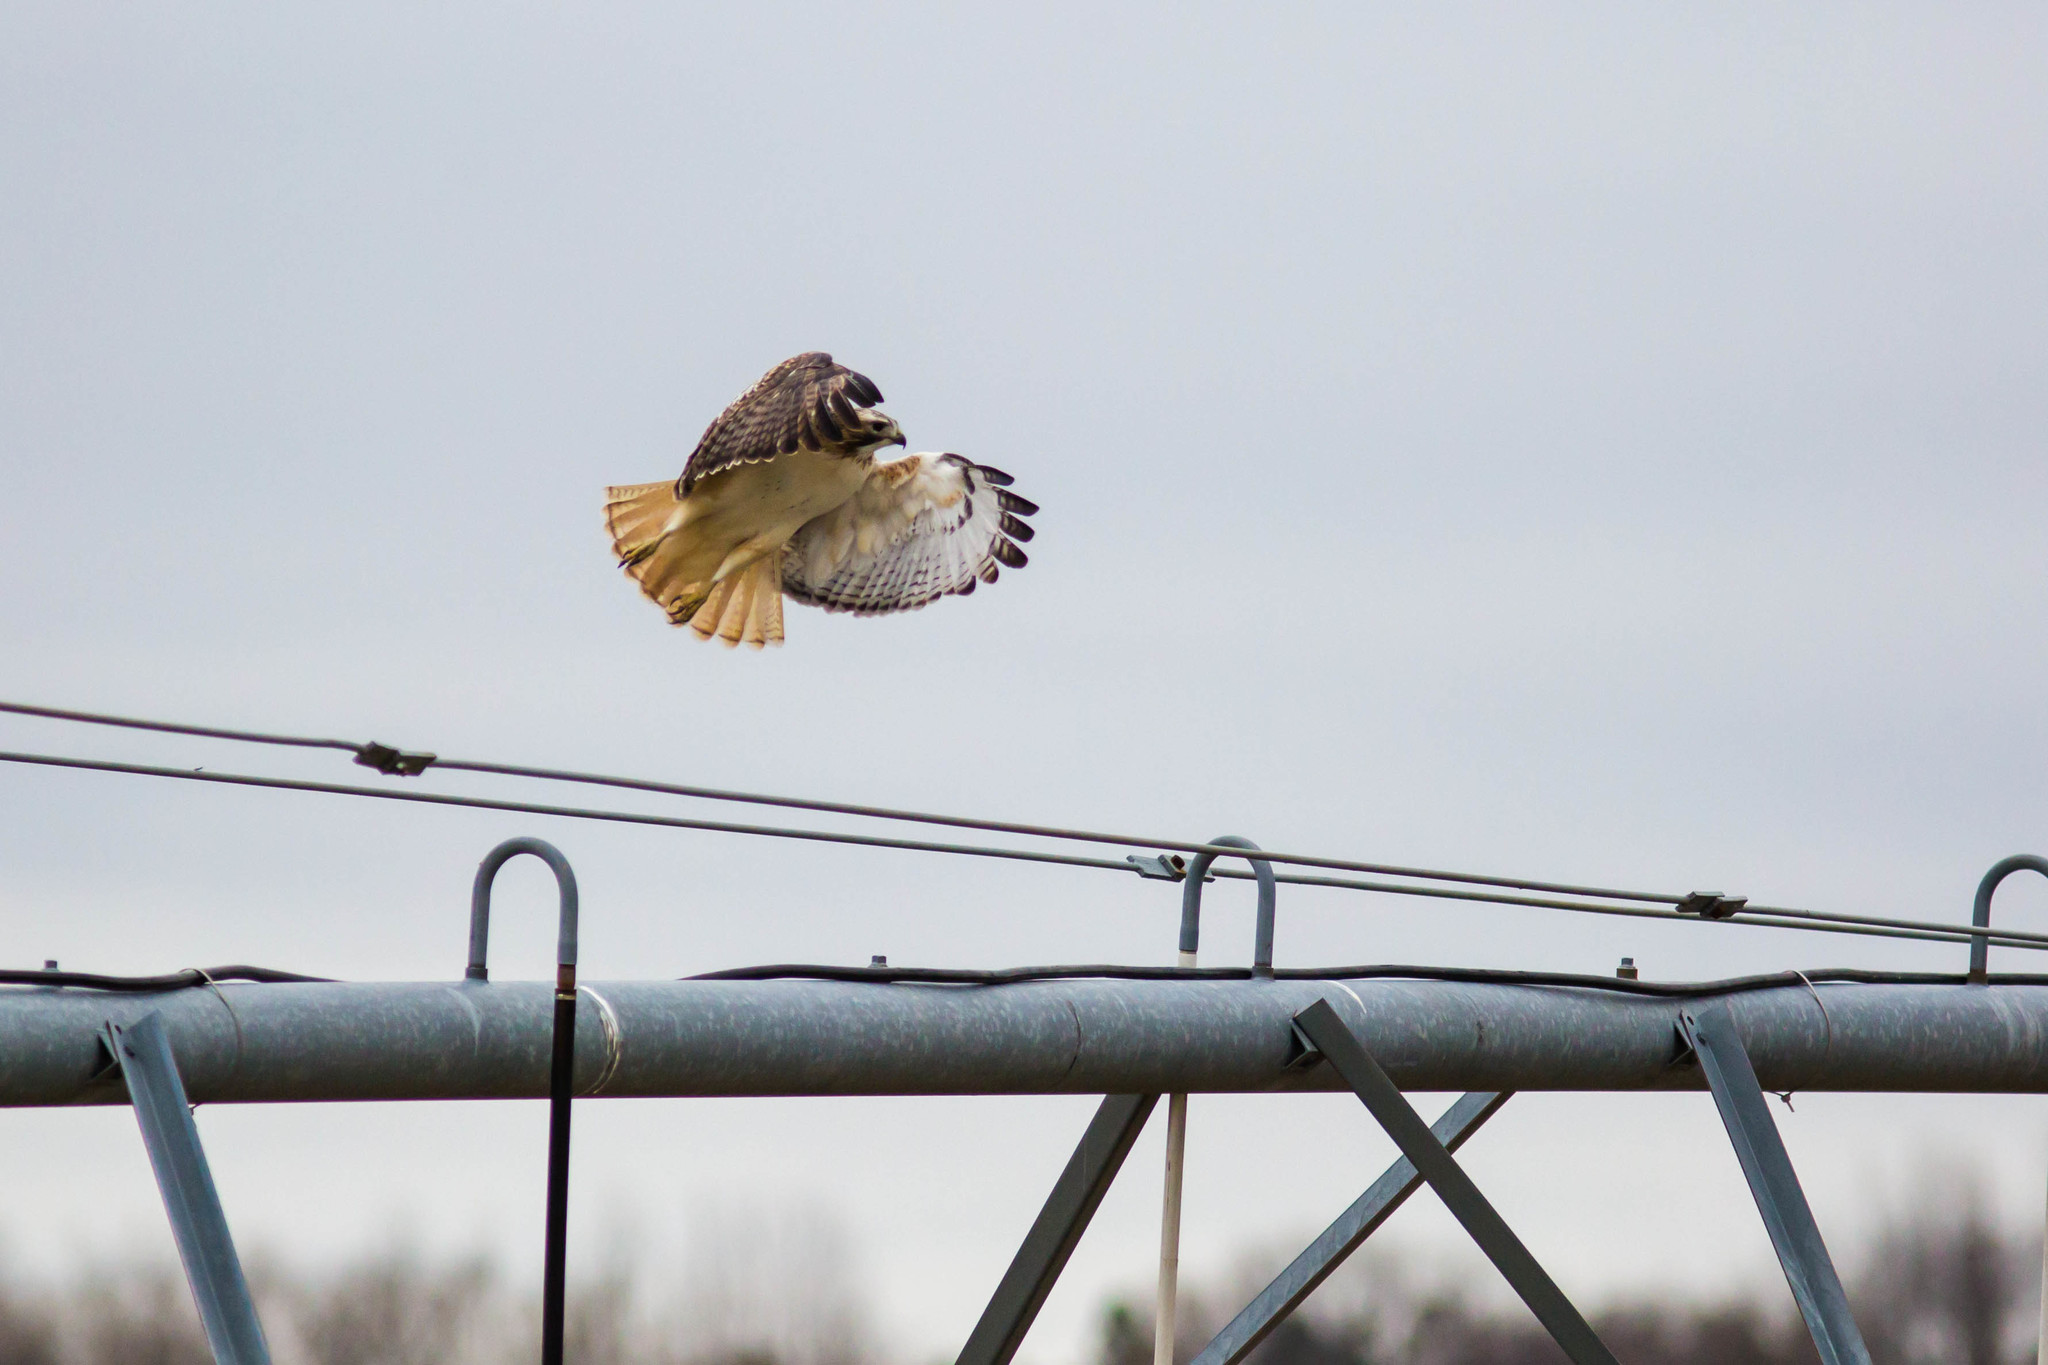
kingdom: Animalia
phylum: Chordata
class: Aves
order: Accipitriformes
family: Accipitridae
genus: Buteo
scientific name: Buteo jamaicensis
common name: Red-tailed hawk
